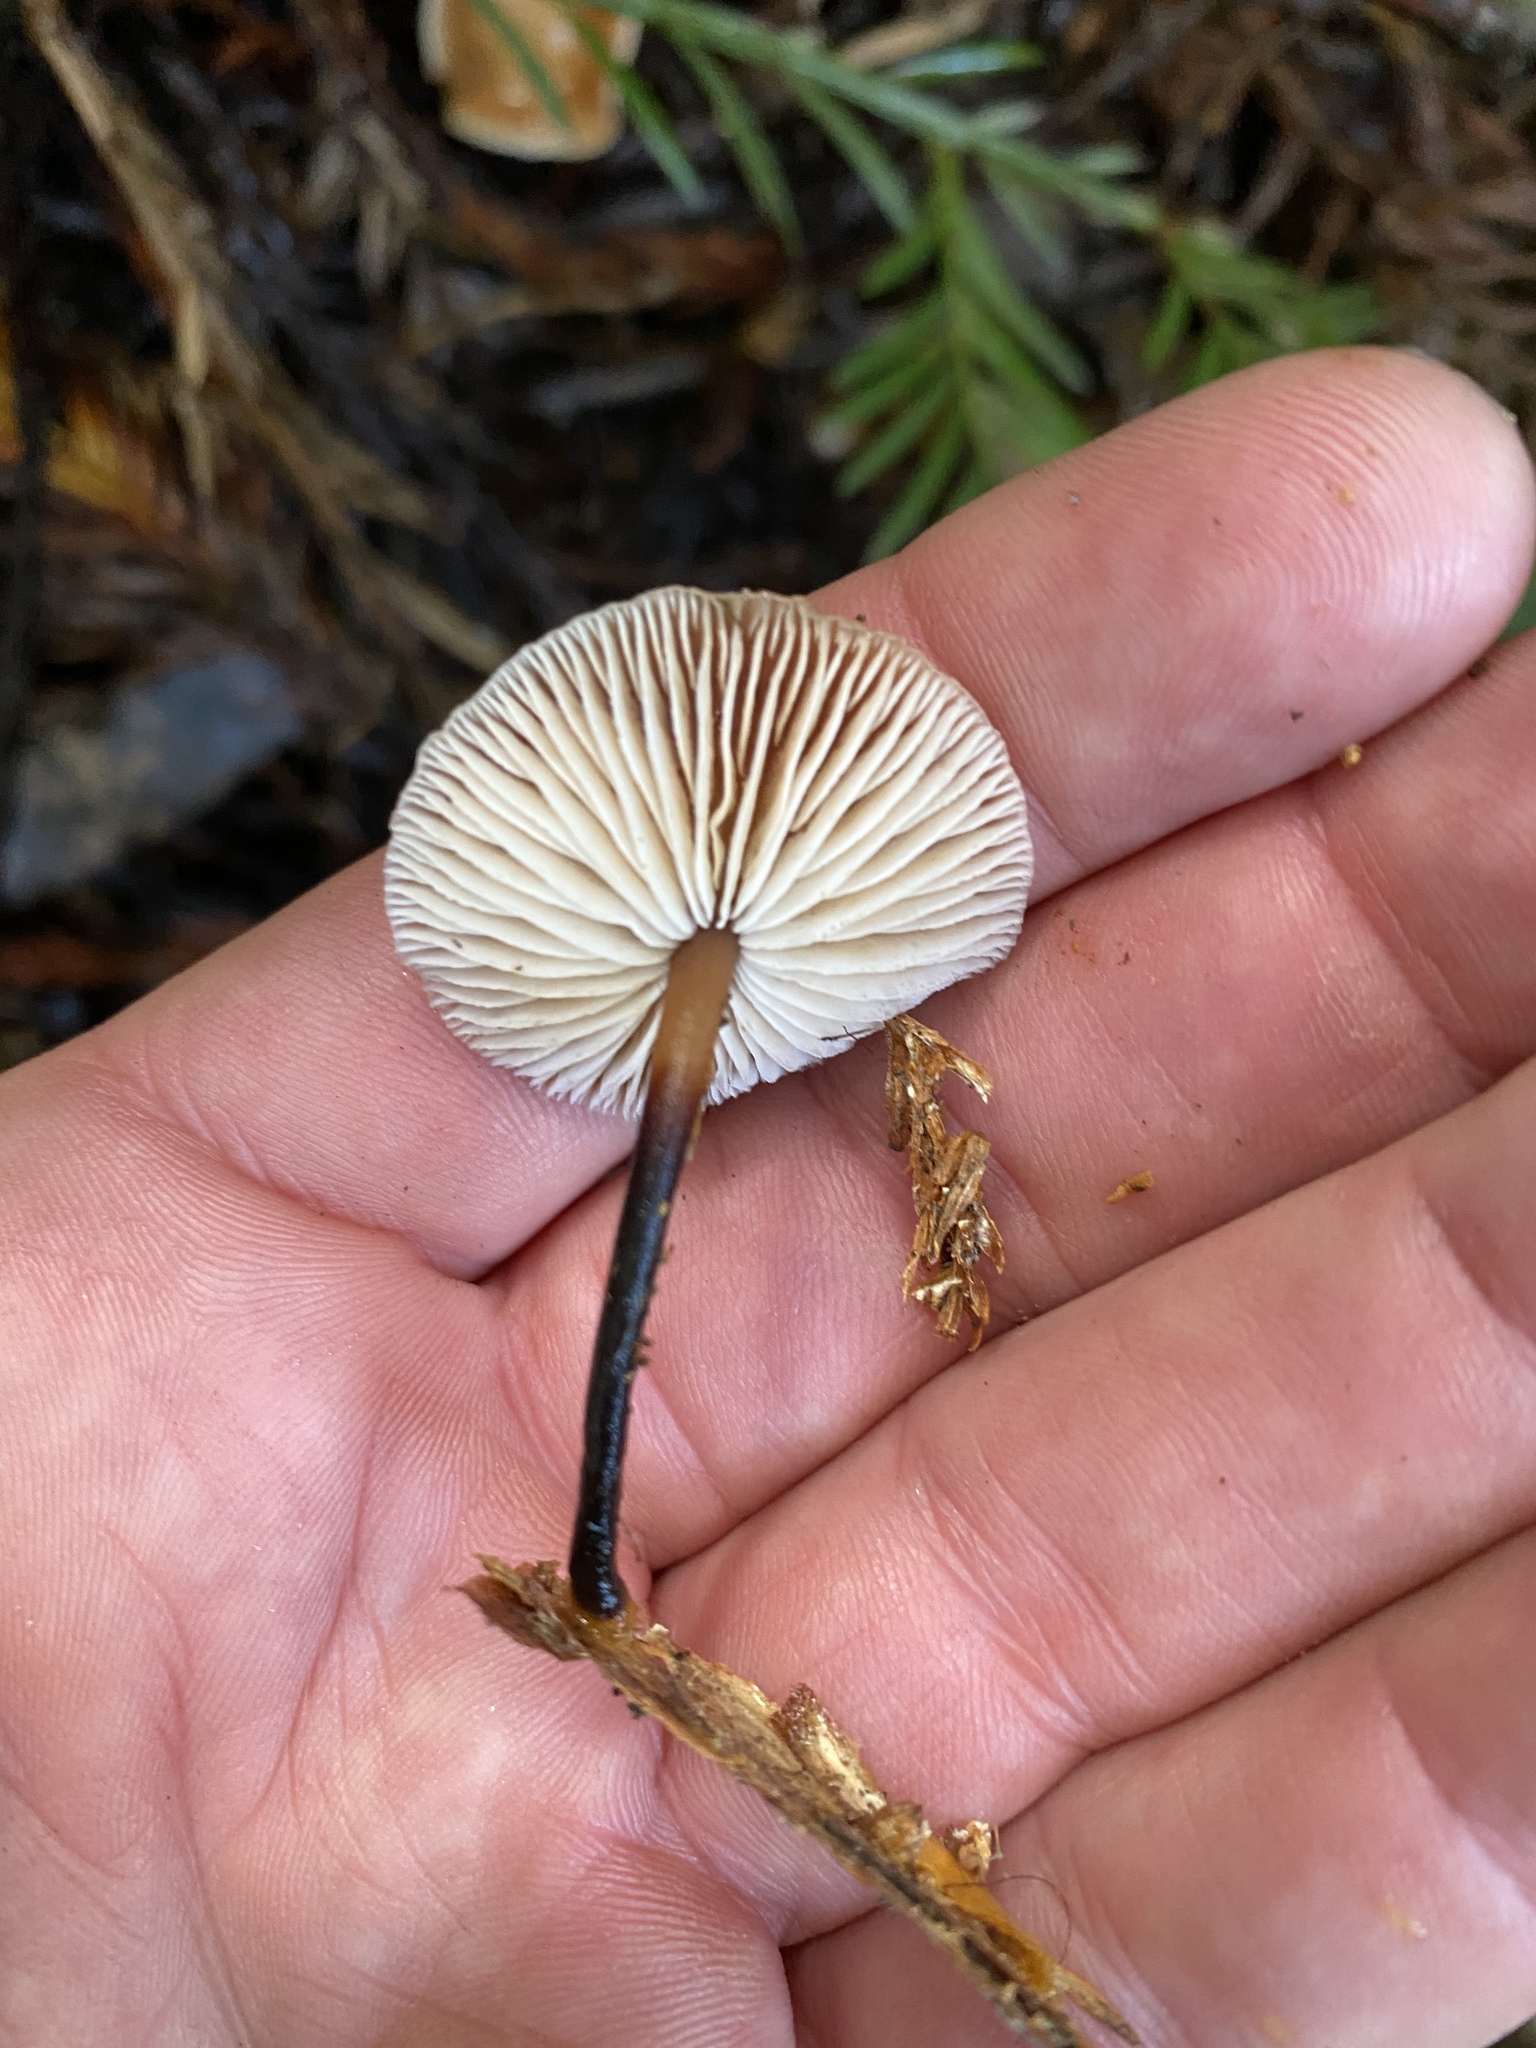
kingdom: Fungi
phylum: Basidiomycota
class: Agaricomycetes
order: Agaricales
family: Omphalotaceae
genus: Gymnopus
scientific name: Gymnopus brassicolens
